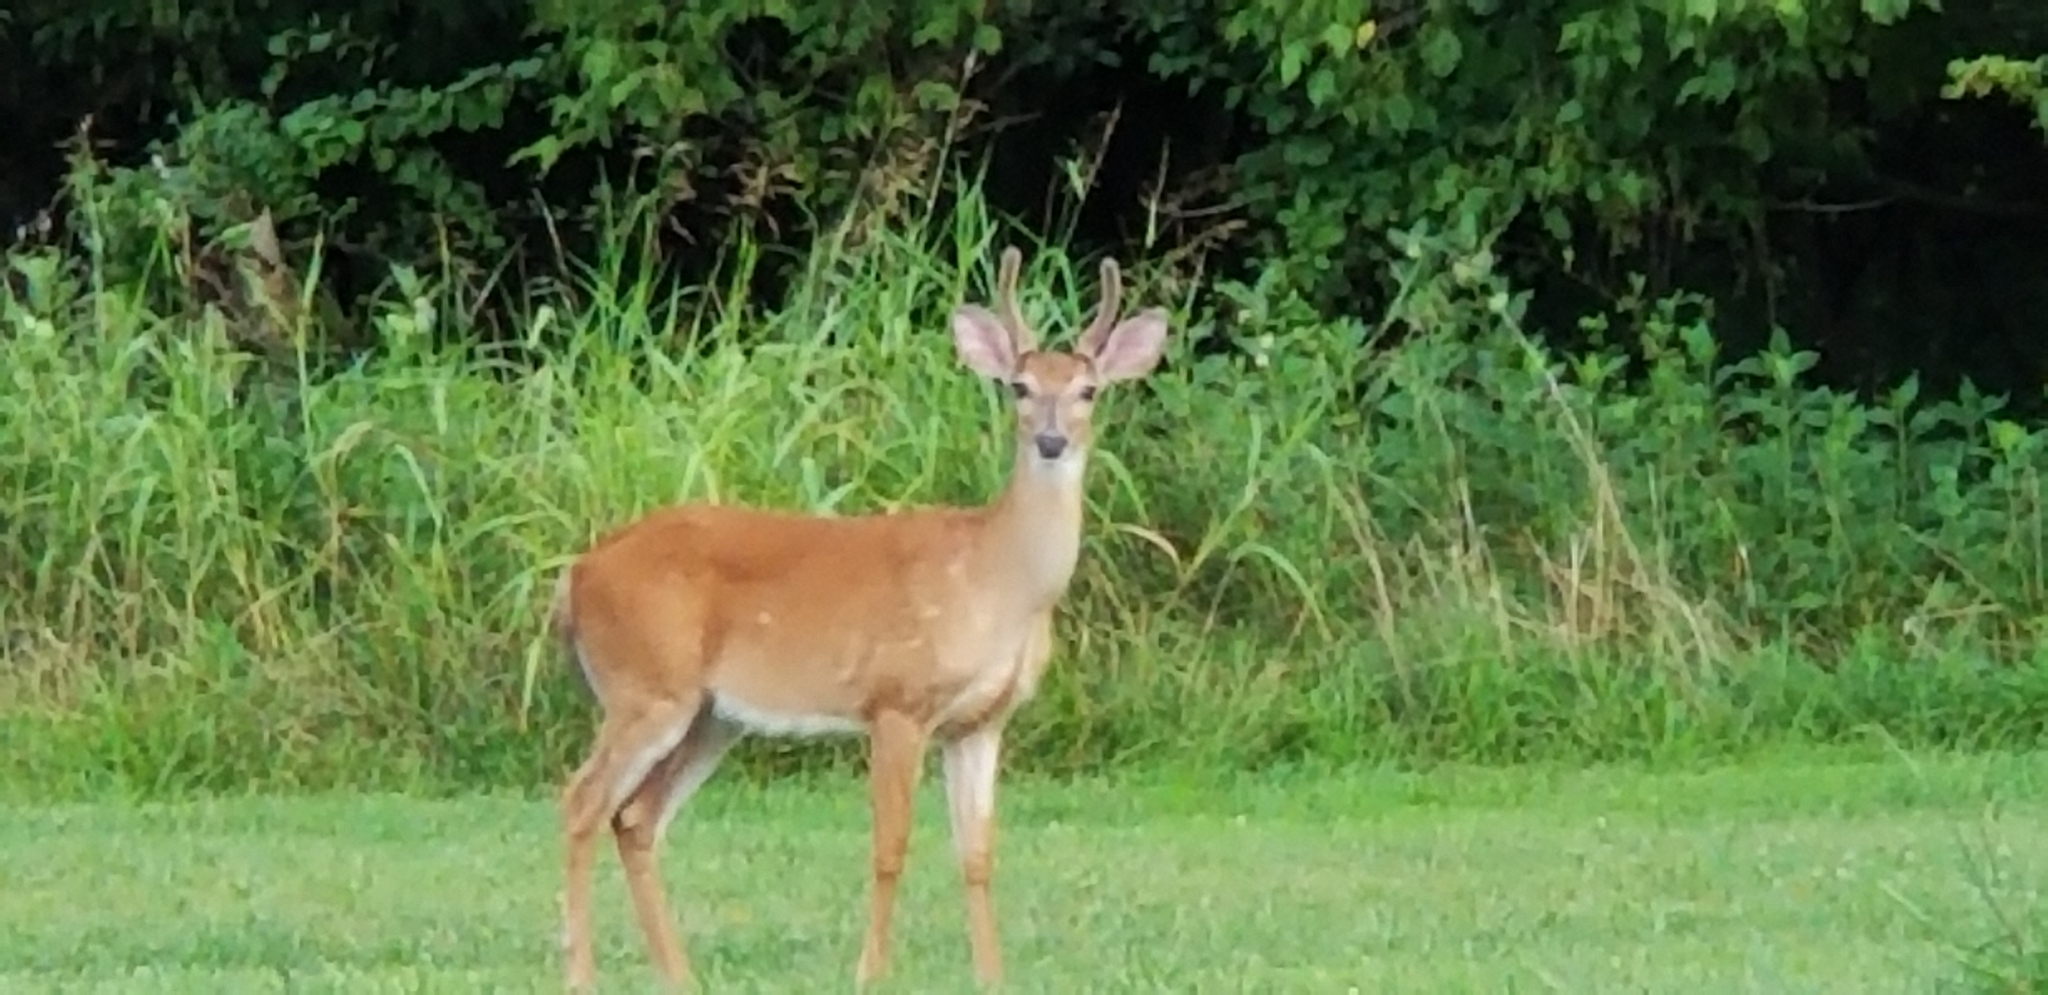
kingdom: Animalia
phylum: Chordata
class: Mammalia
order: Artiodactyla
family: Cervidae
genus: Odocoileus
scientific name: Odocoileus virginianus
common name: White-tailed deer
